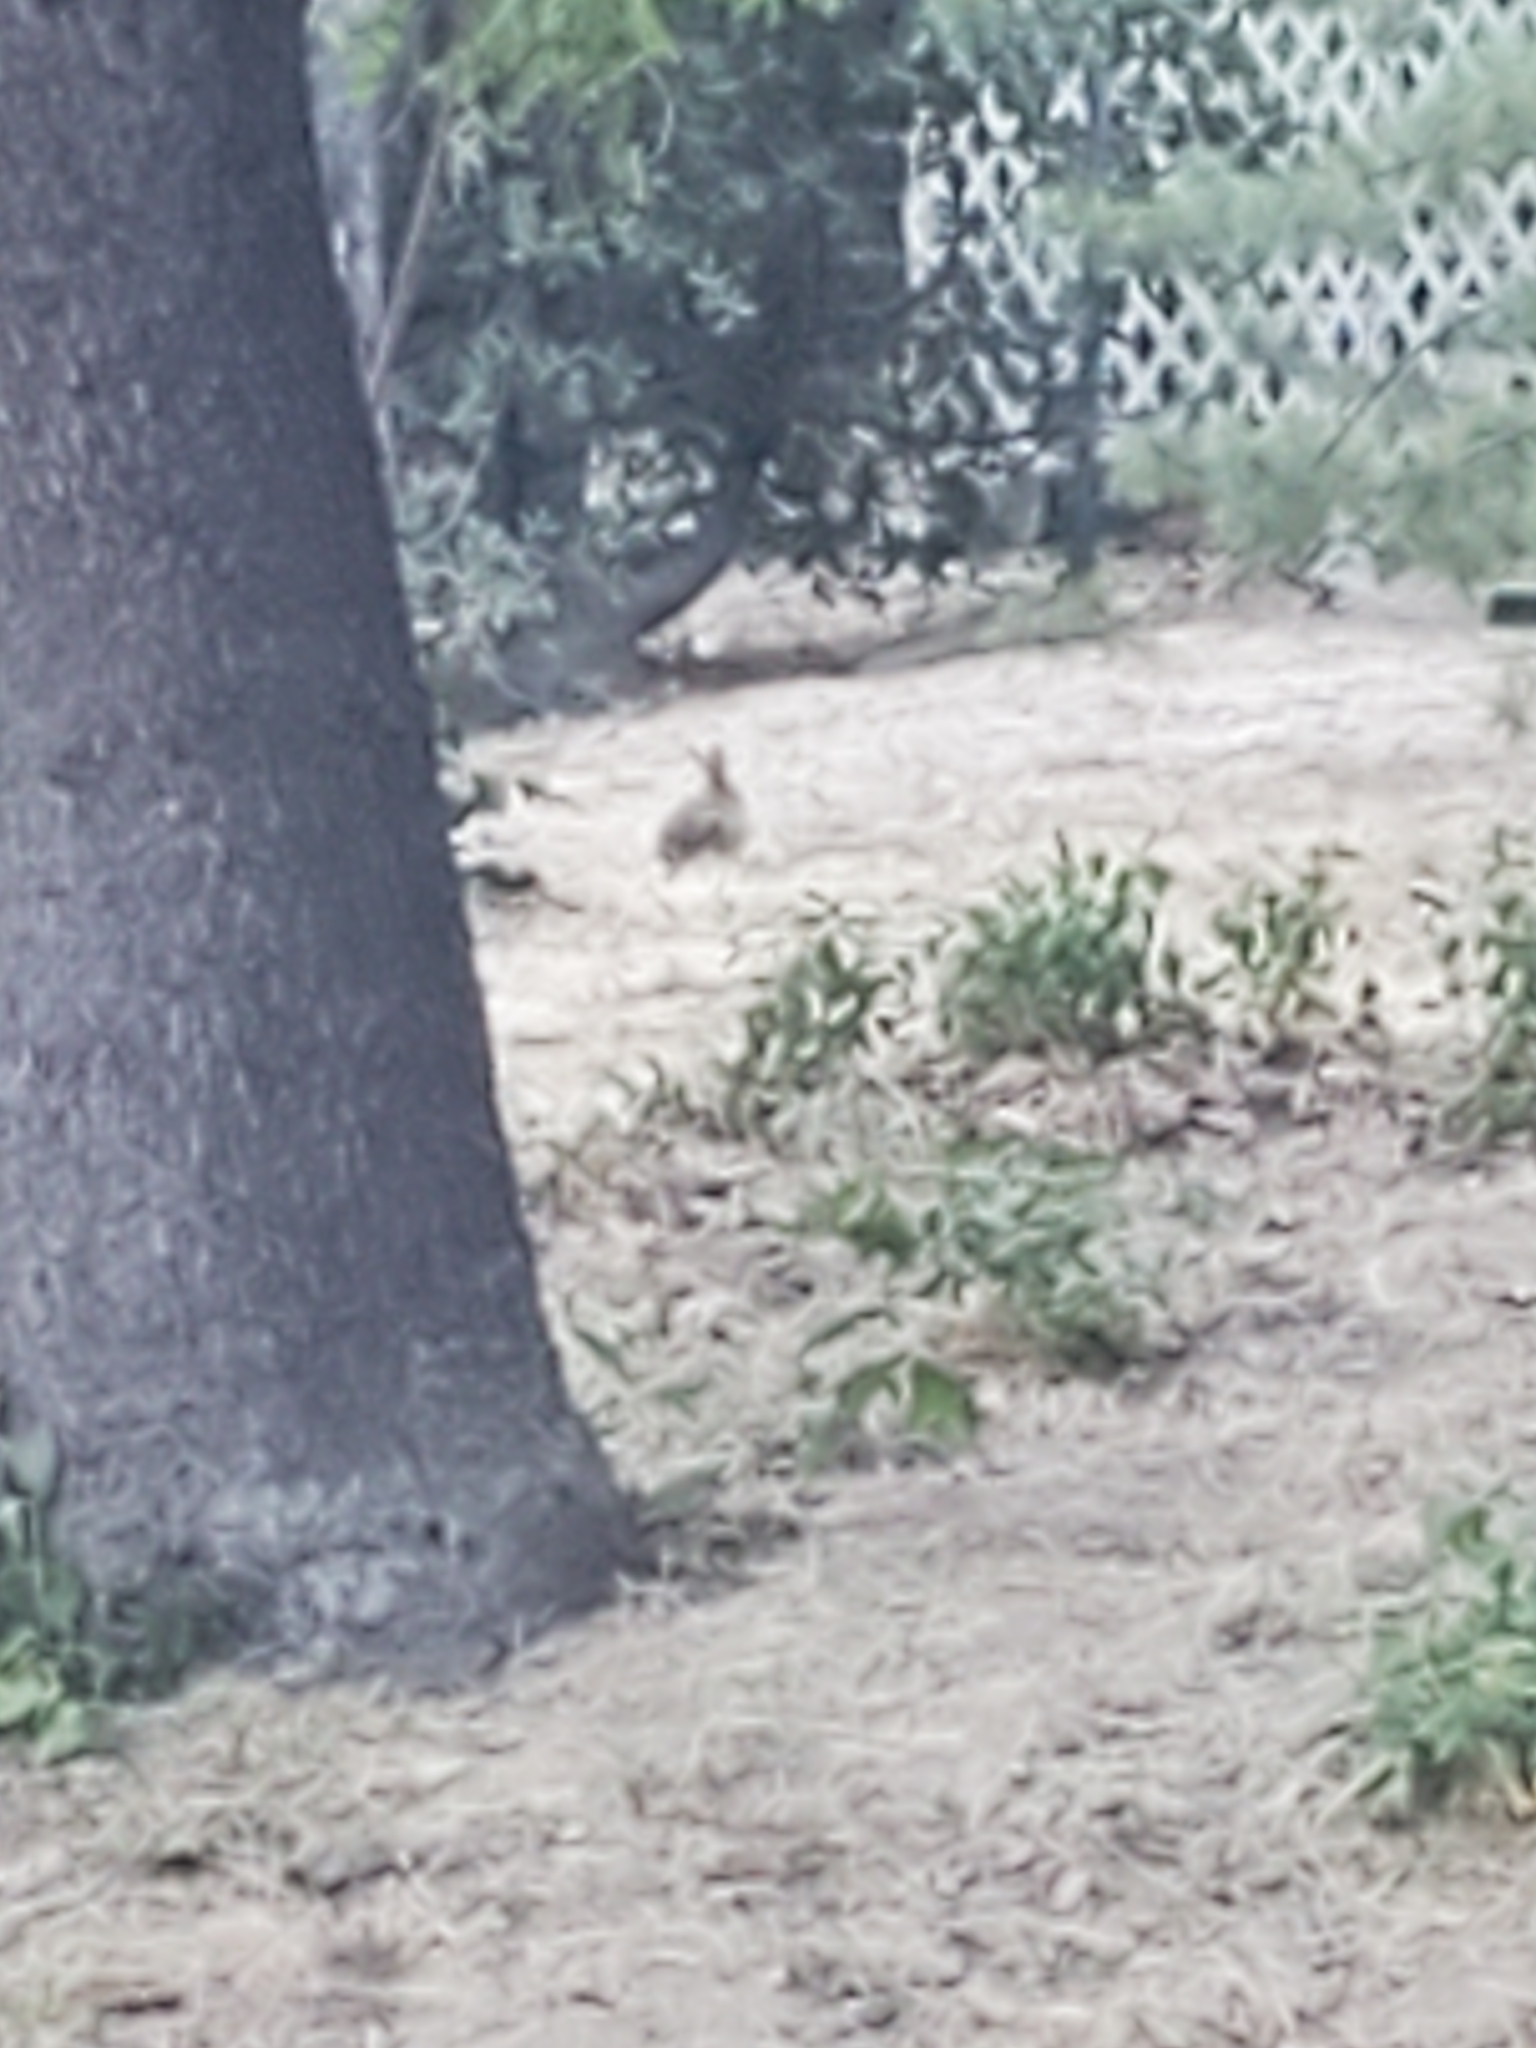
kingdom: Animalia
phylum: Chordata
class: Mammalia
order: Lagomorpha
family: Leporidae
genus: Sylvilagus
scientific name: Sylvilagus audubonii
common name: Desert cottontail
